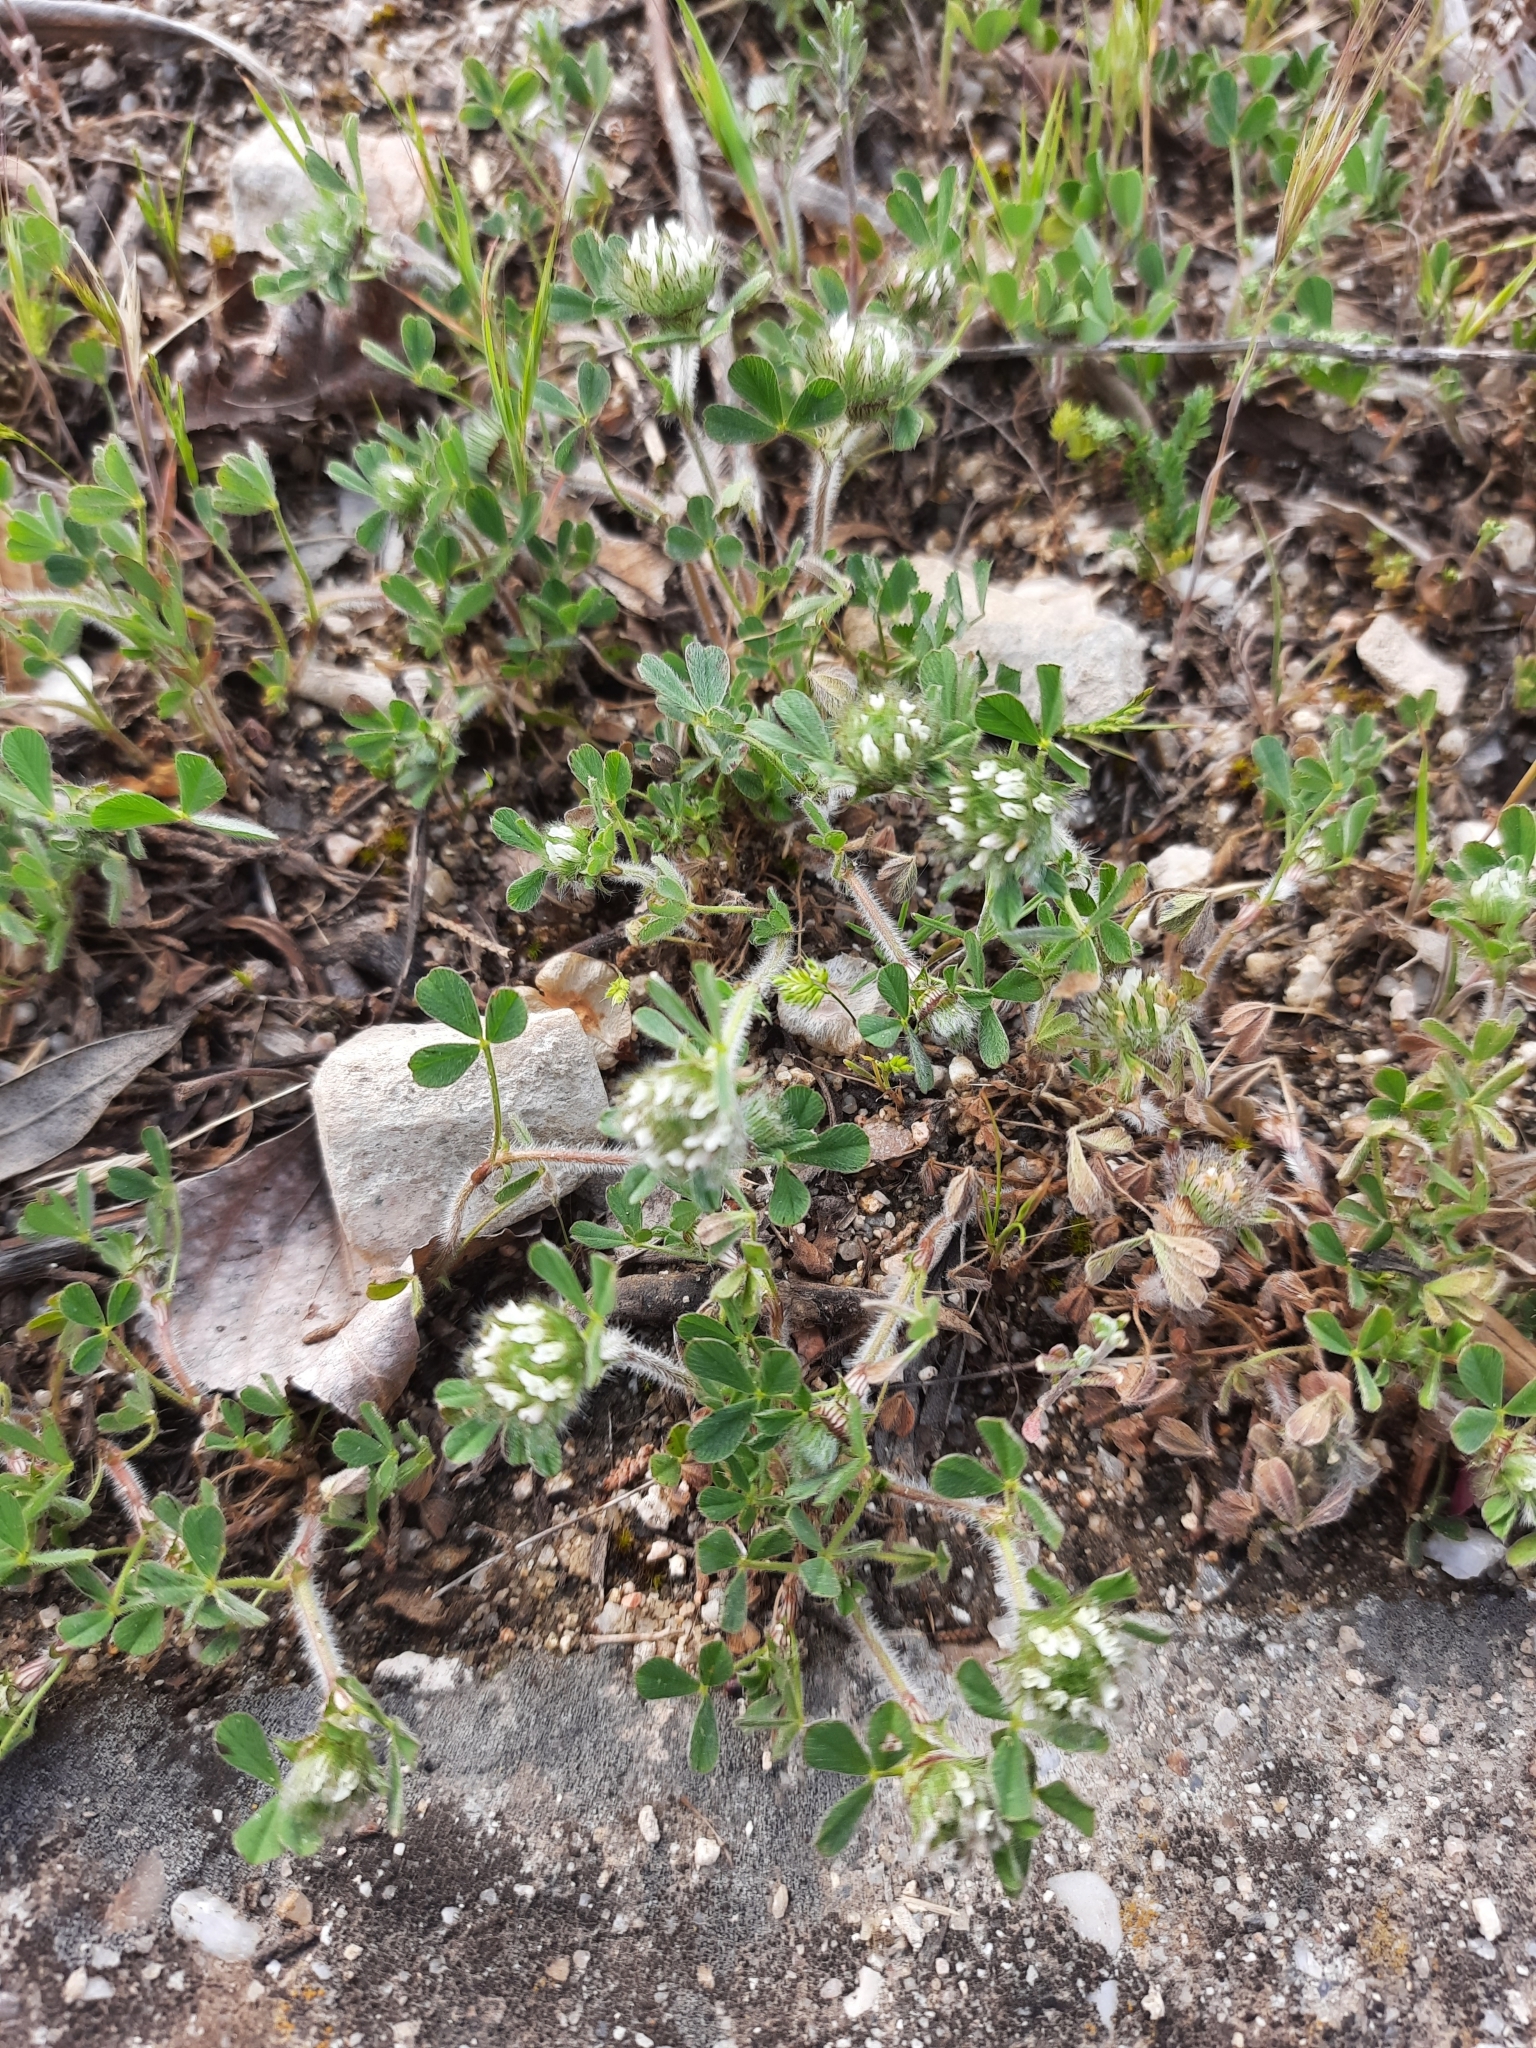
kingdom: Plantae
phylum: Tracheophyta
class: Magnoliopsida
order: Fabales
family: Fabaceae
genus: Trifolium
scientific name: Trifolium cherleri
